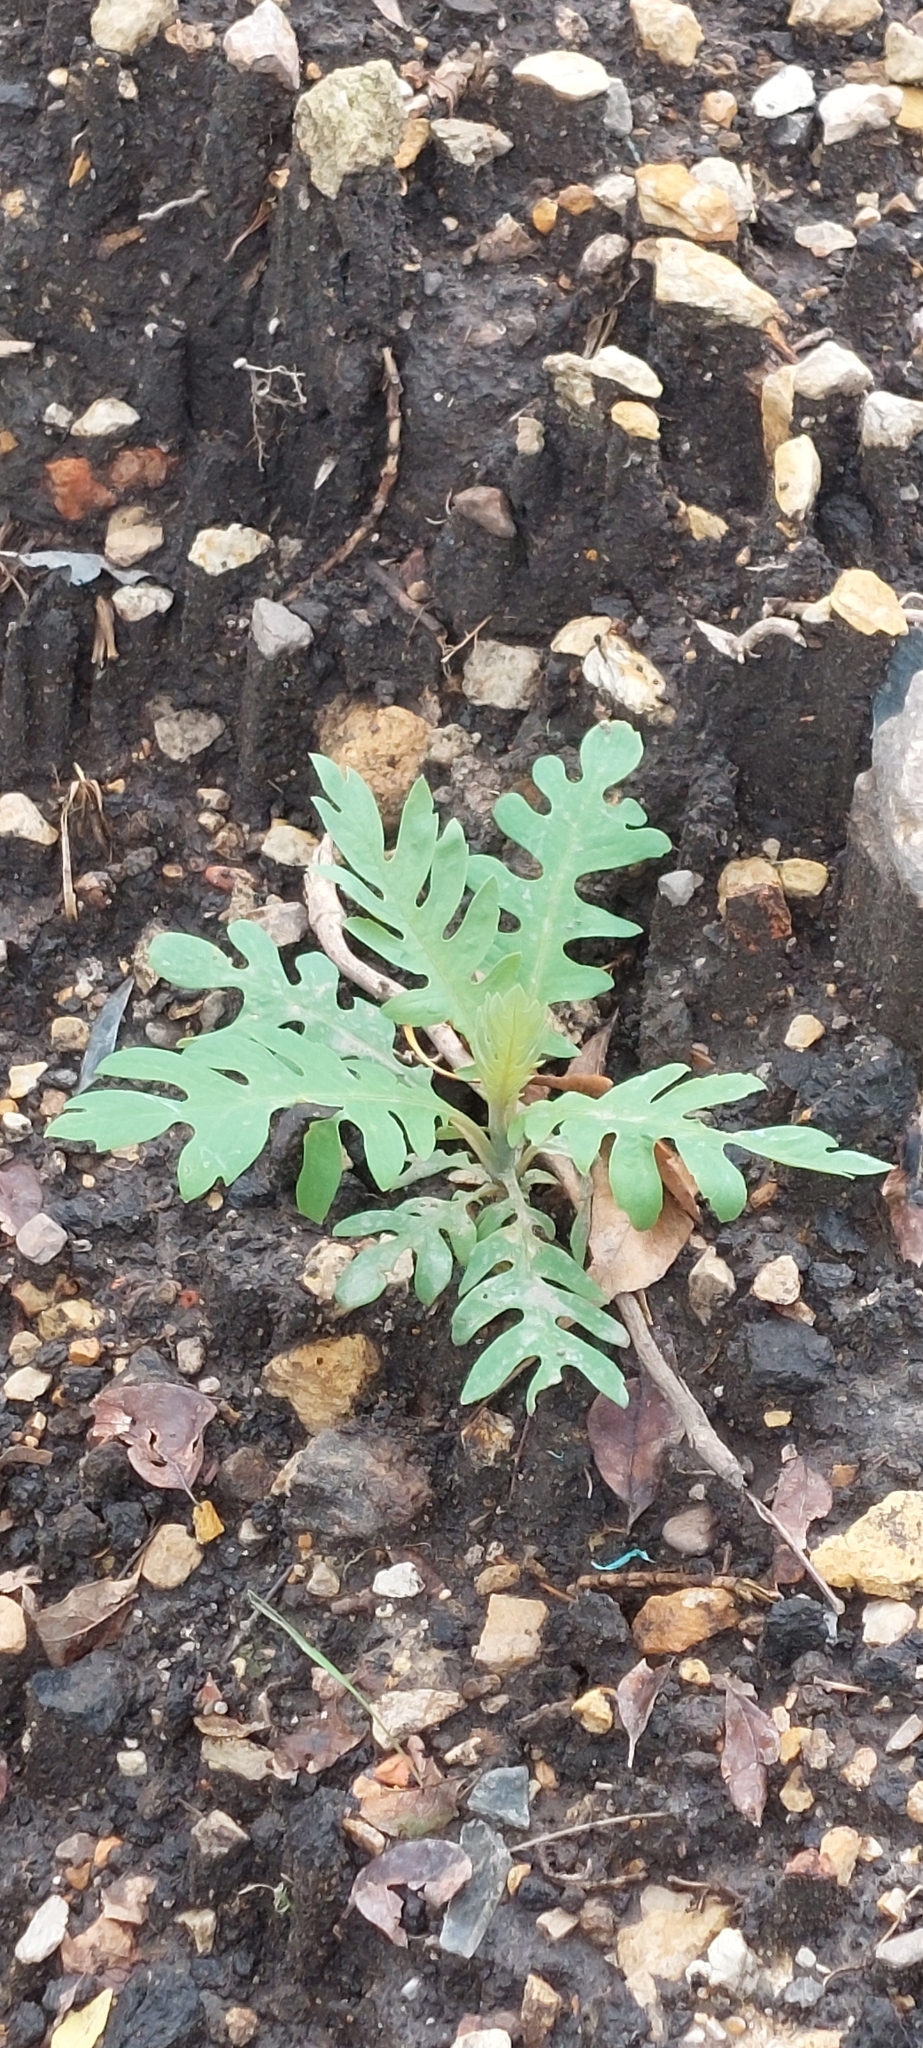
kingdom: Plantae
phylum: Tracheophyta
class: Magnoliopsida
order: Ranunculales
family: Papaveraceae
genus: Bocconia
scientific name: Bocconia frutescens
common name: Tree poppy
